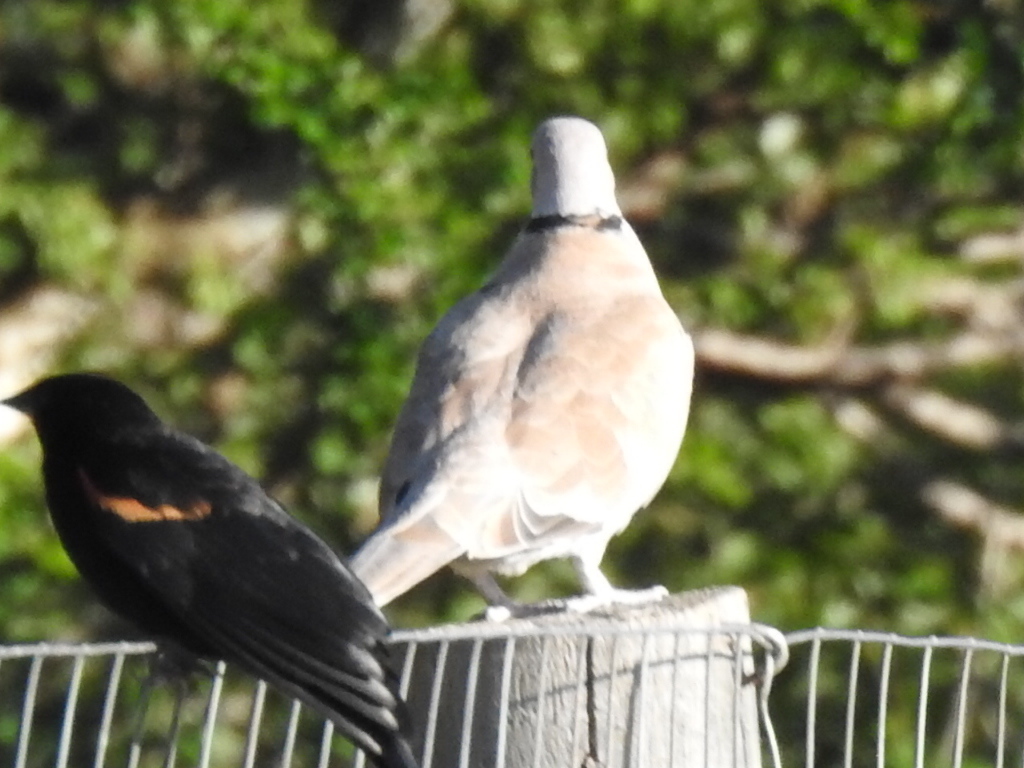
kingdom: Animalia
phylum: Chordata
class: Aves
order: Columbiformes
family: Columbidae
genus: Streptopelia
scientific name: Streptopelia decaocto
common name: Eurasian collared dove
